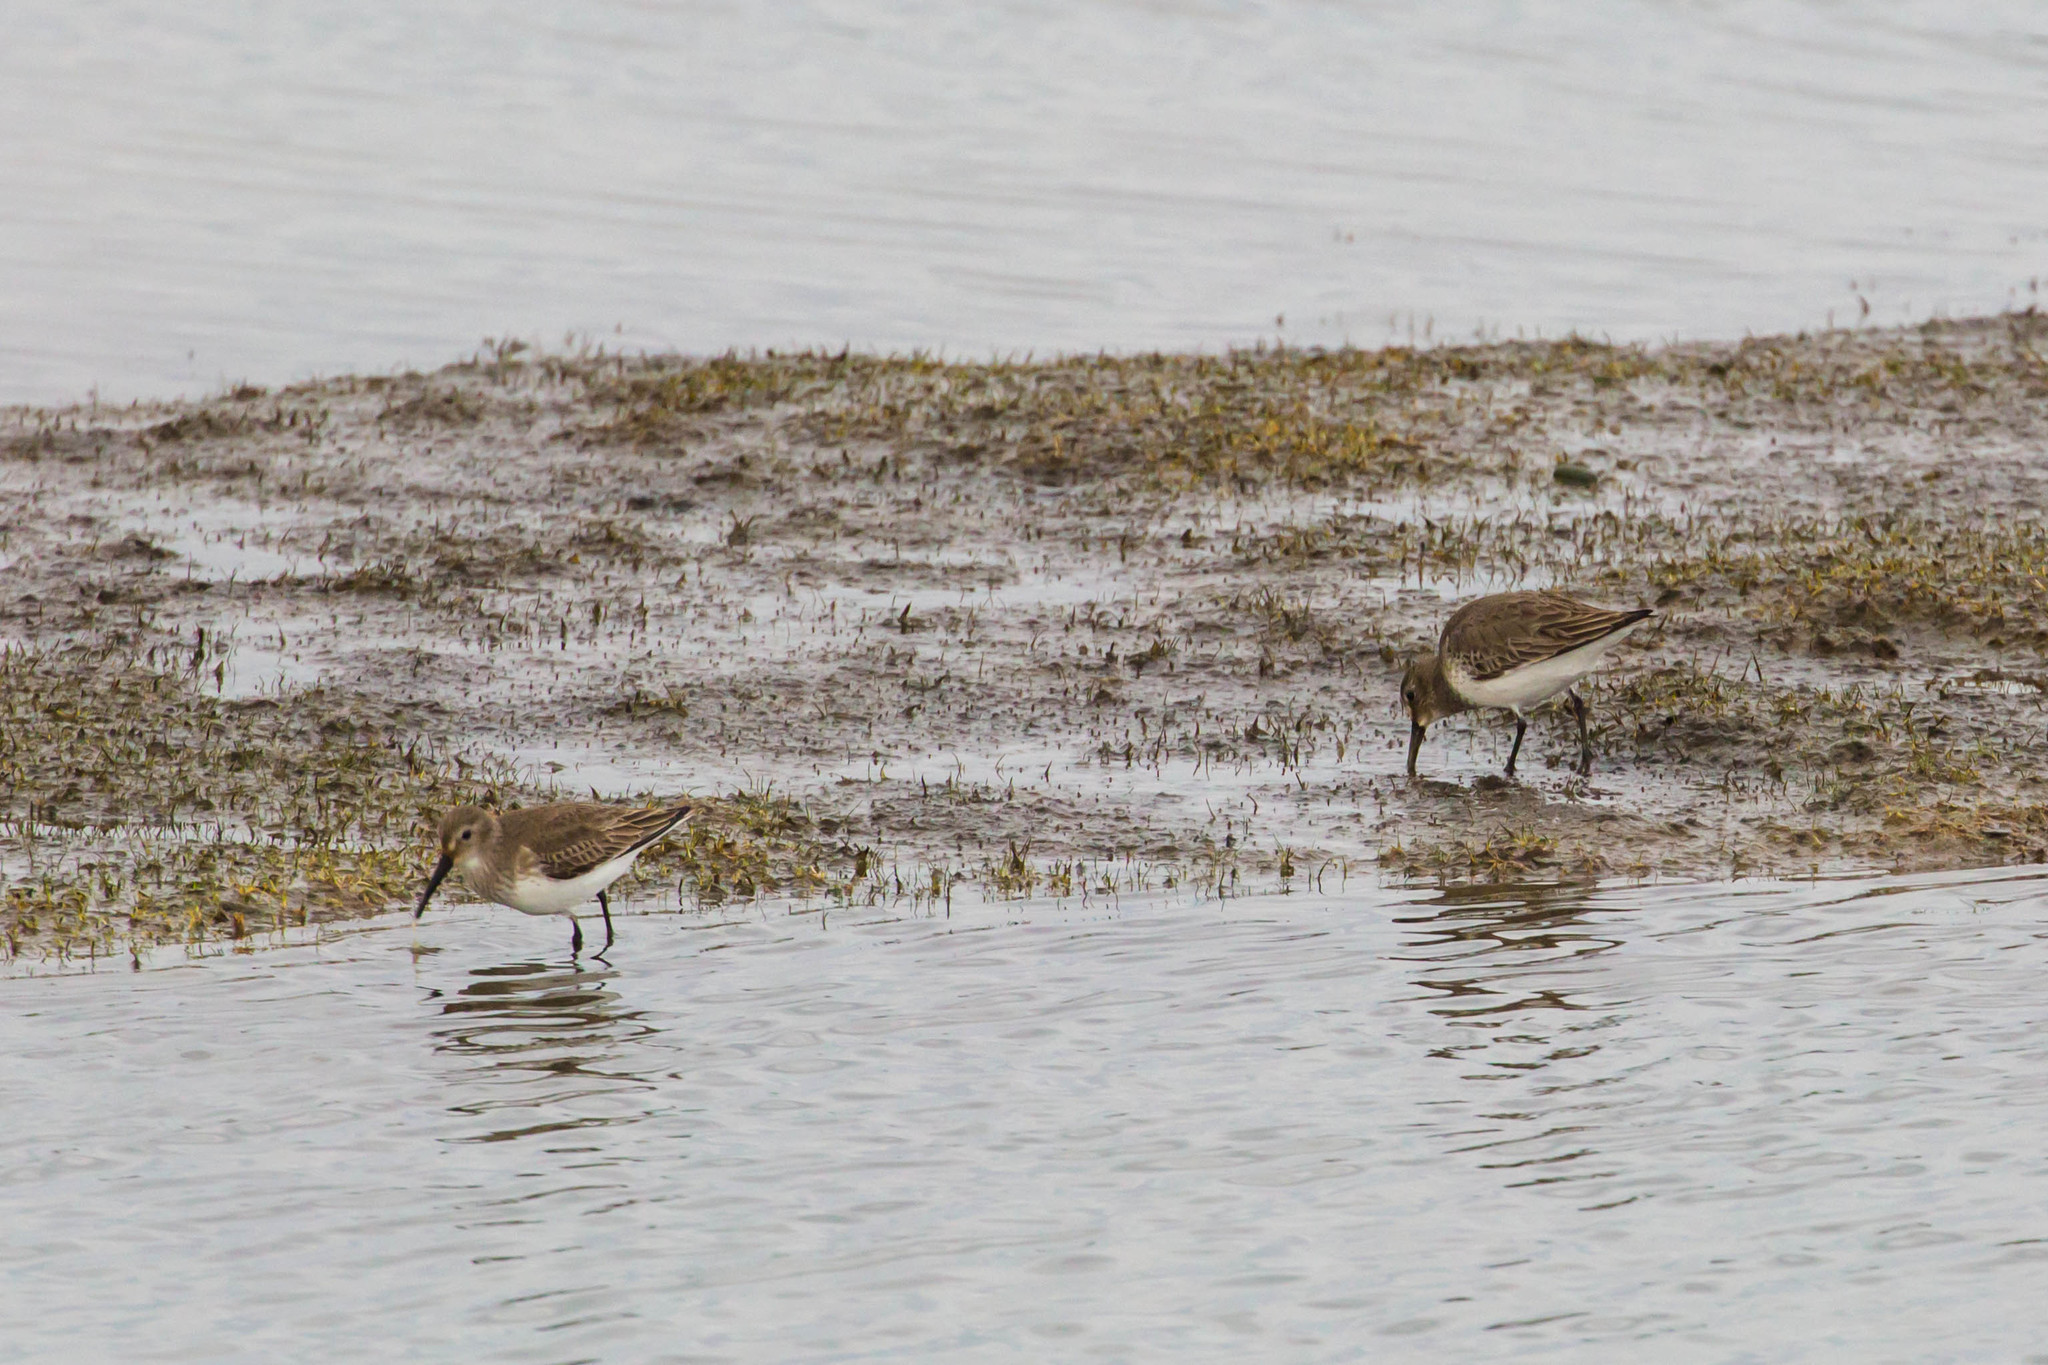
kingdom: Animalia
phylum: Chordata
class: Aves
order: Charadriiformes
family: Scolopacidae
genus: Calidris
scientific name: Calidris alpina
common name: Dunlin
